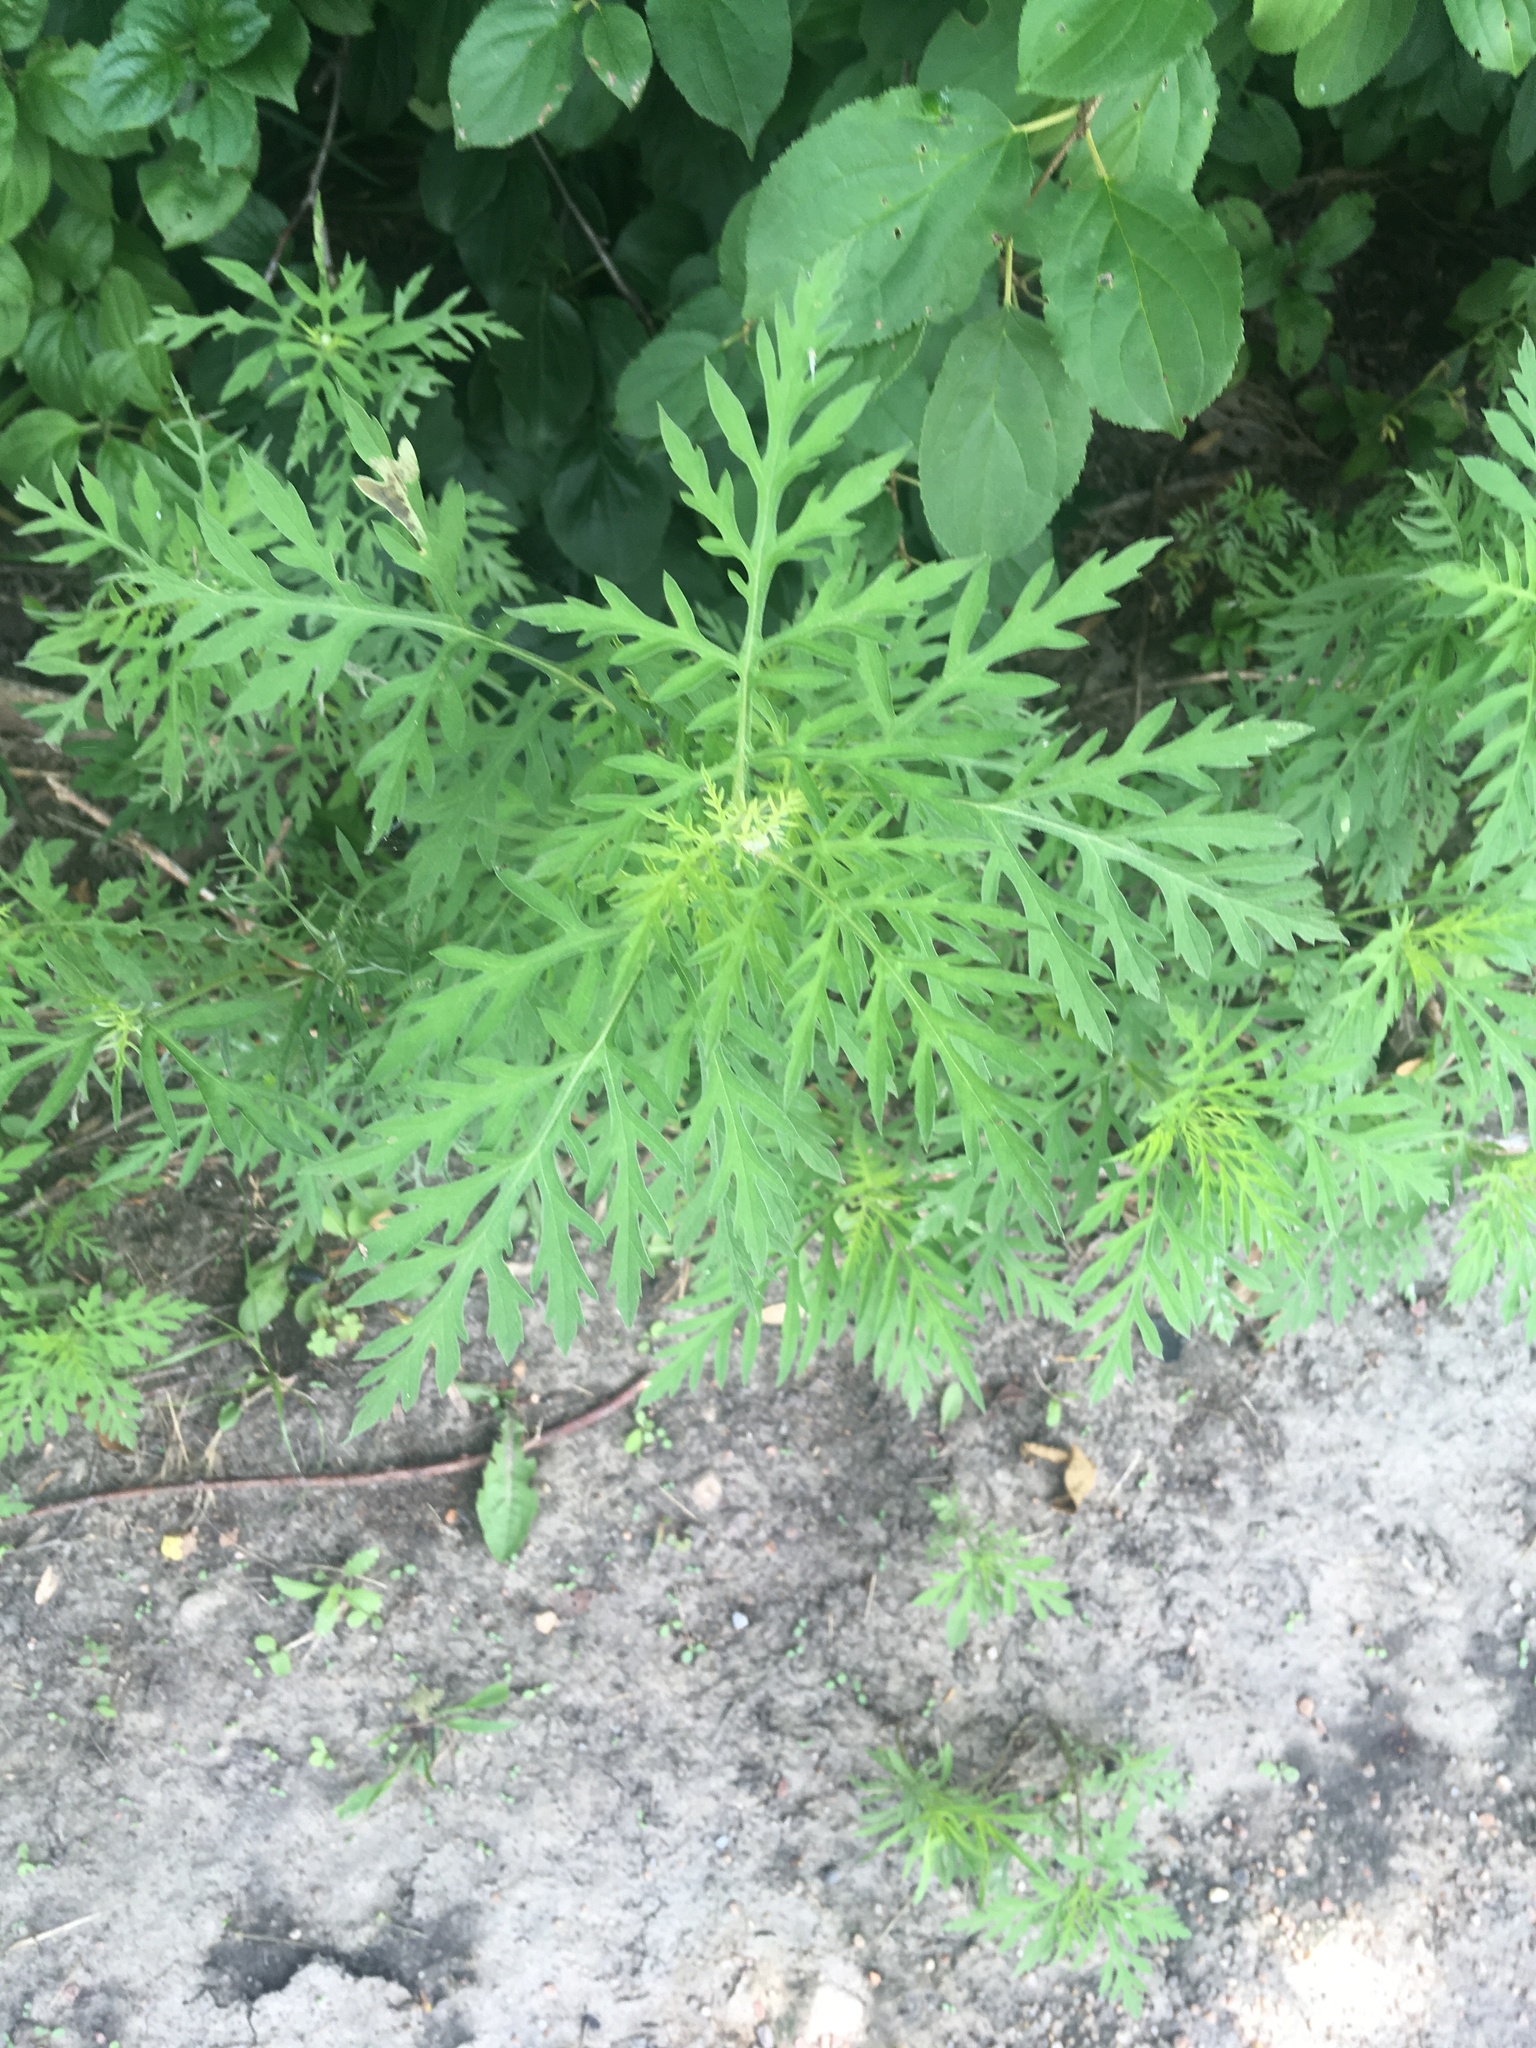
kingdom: Plantae
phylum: Tracheophyta
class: Magnoliopsida
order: Asterales
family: Asteraceae
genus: Ambrosia
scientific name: Ambrosia artemisiifolia
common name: Annual ragweed
